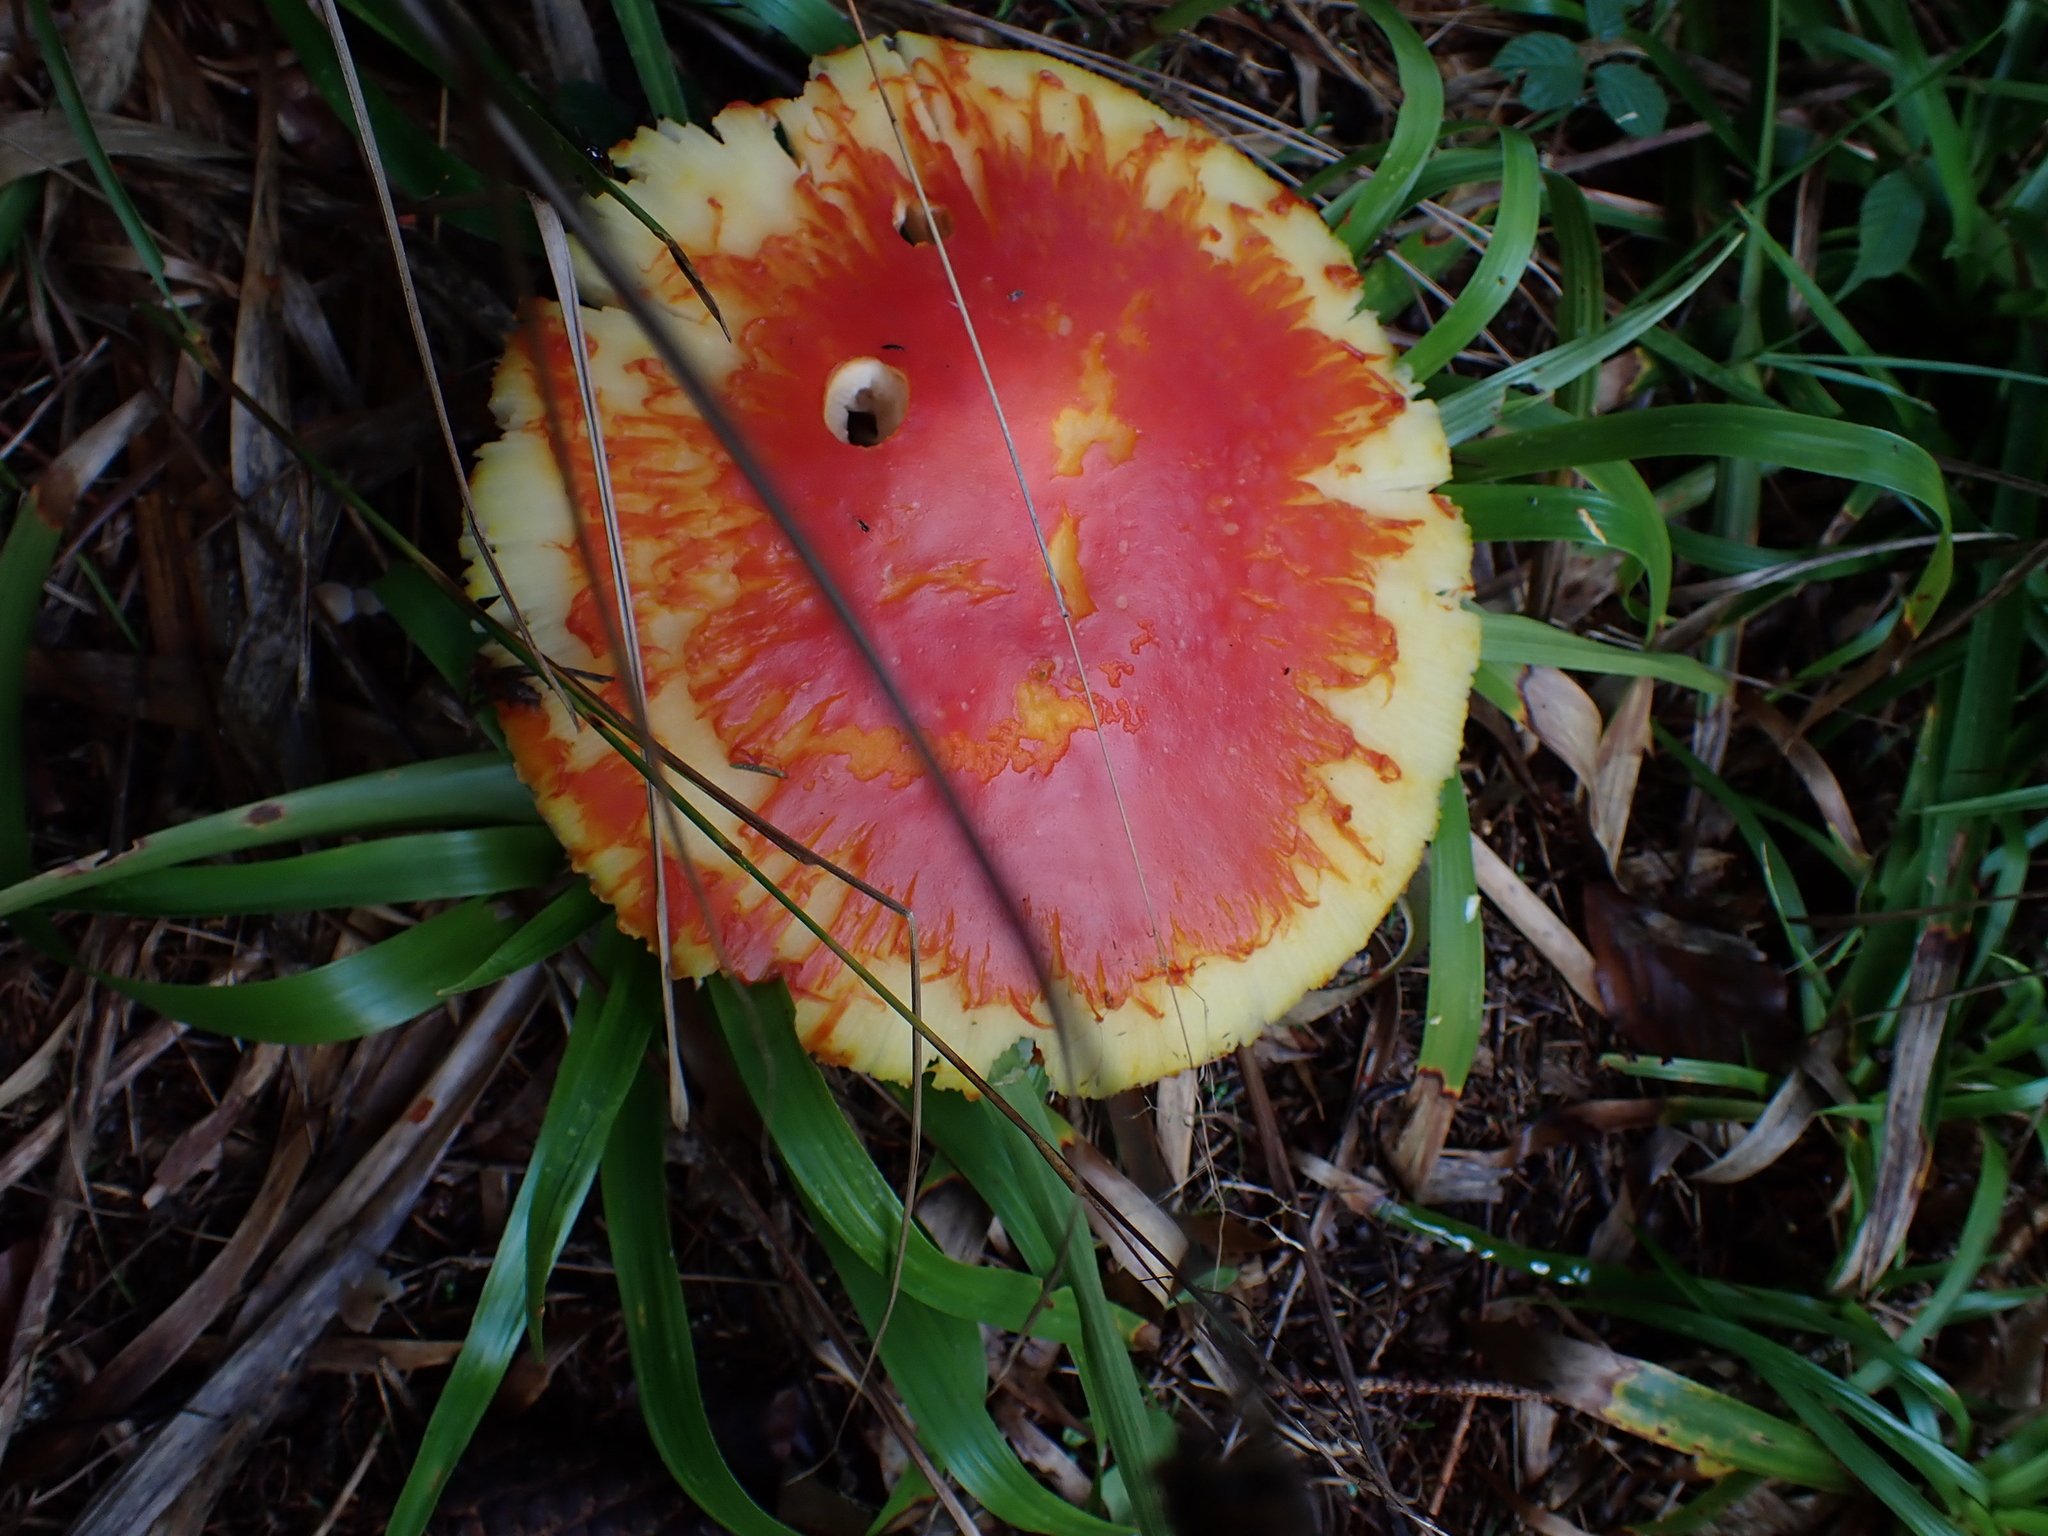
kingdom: Fungi
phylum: Basidiomycota
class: Agaricomycetes
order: Agaricales
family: Amanitaceae
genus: Amanita
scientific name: Amanita muscaria
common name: Fly agaric
